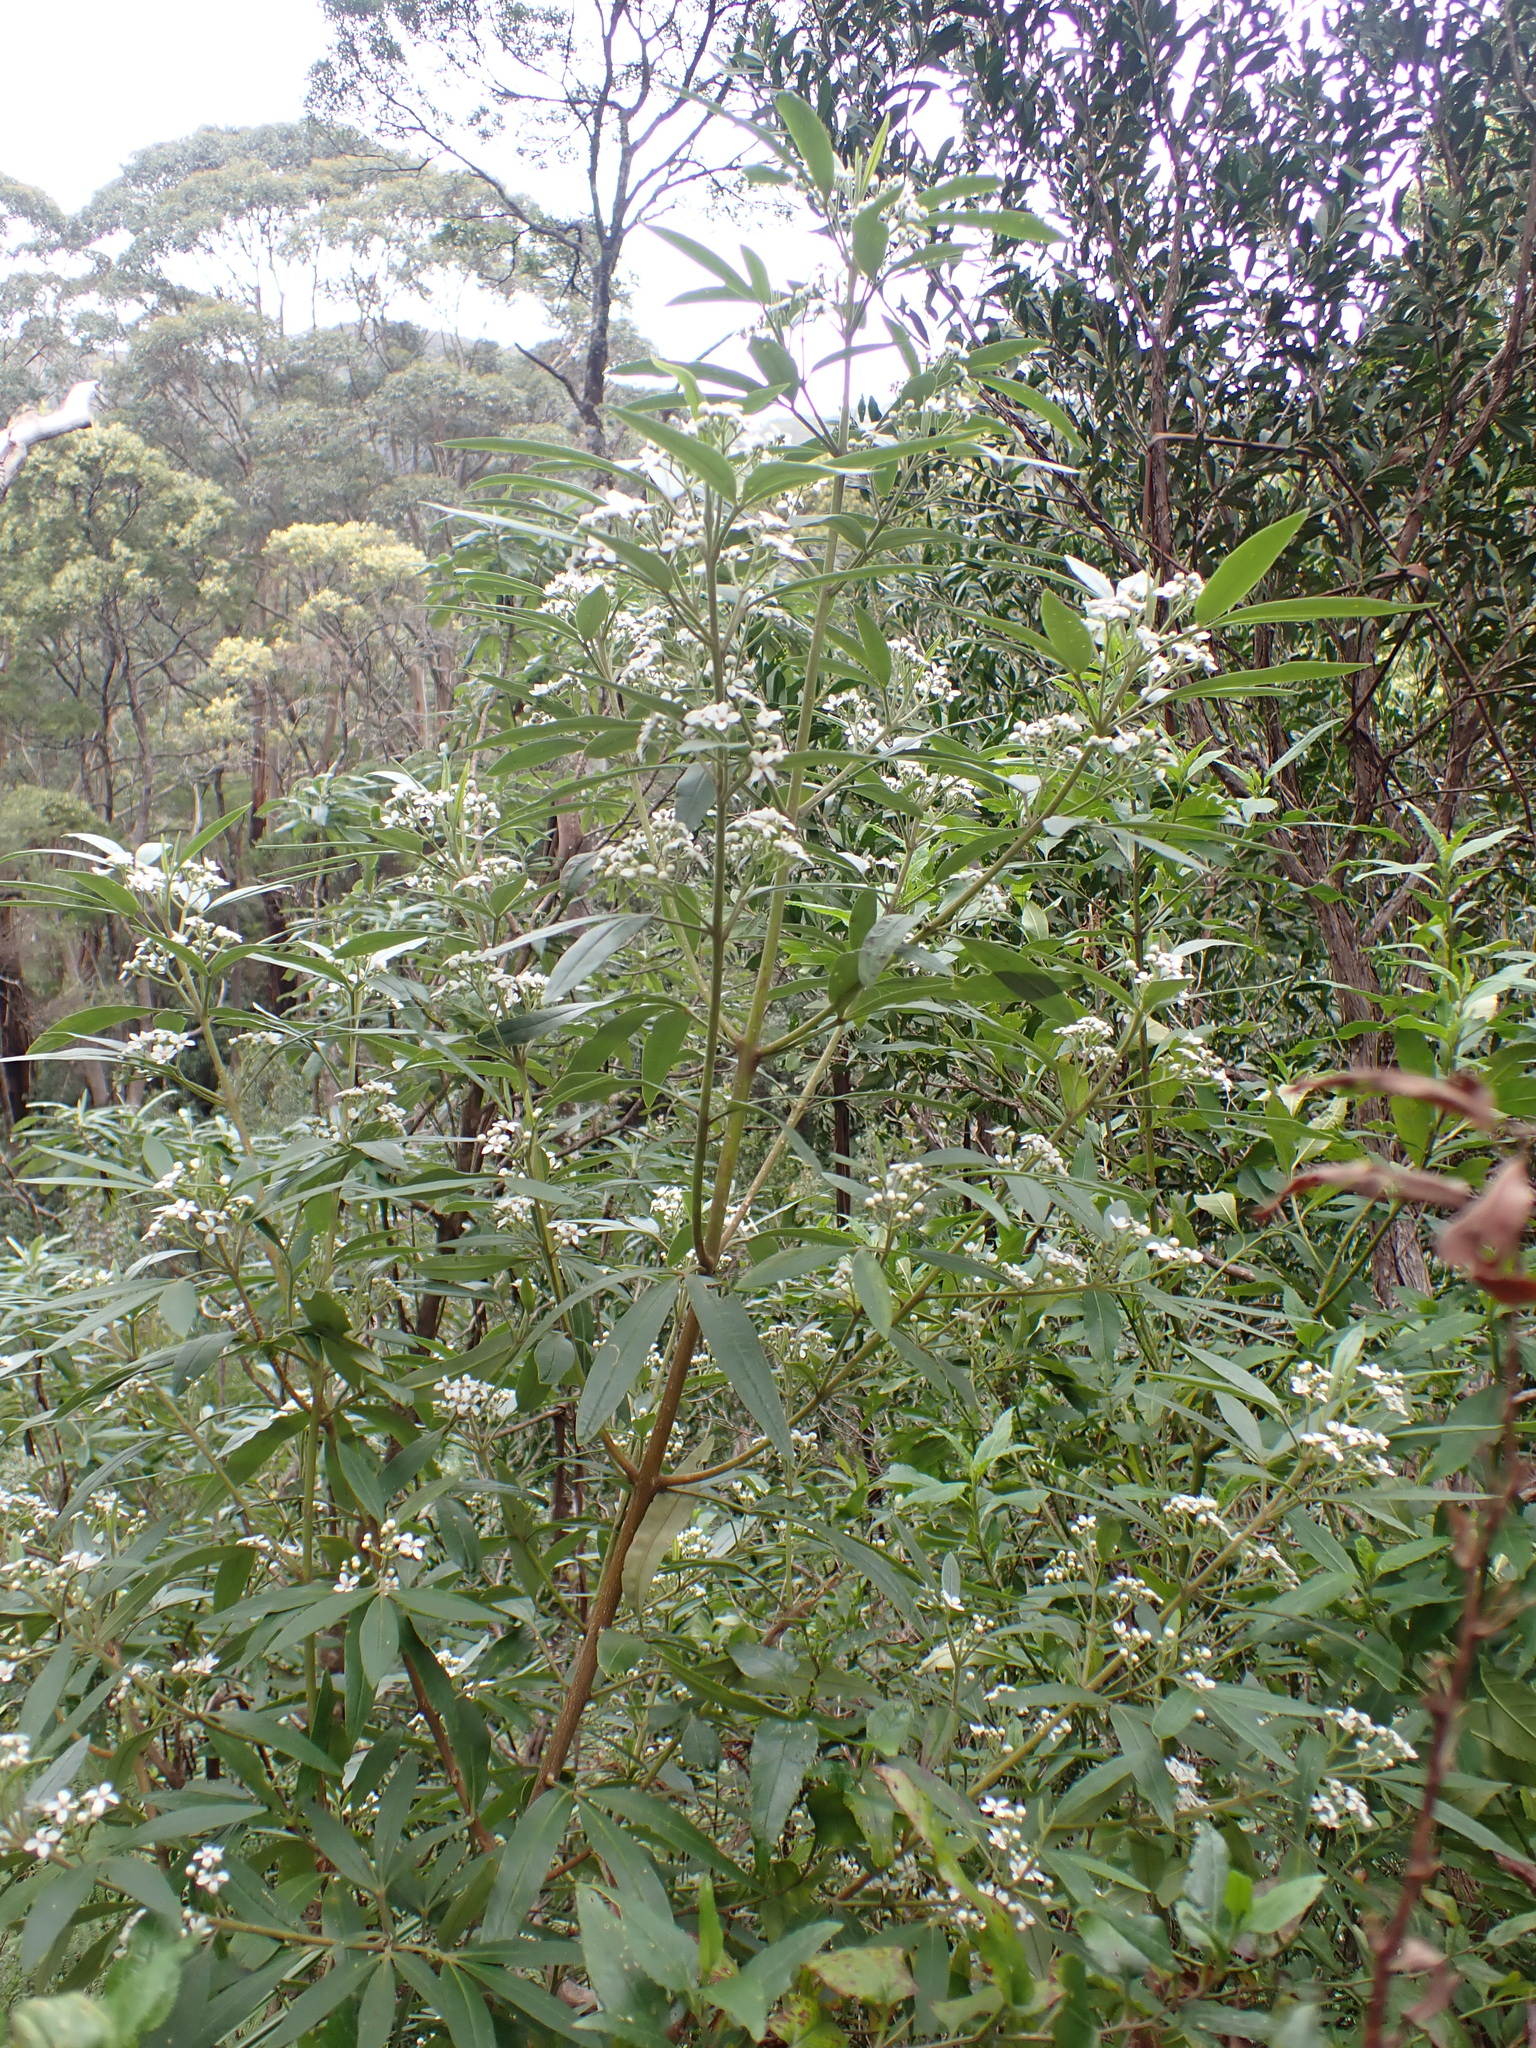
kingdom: Plantae
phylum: Tracheophyta
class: Magnoliopsida
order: Sapindales
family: Rutaceae
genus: Zieria
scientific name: Zieria arborescens
